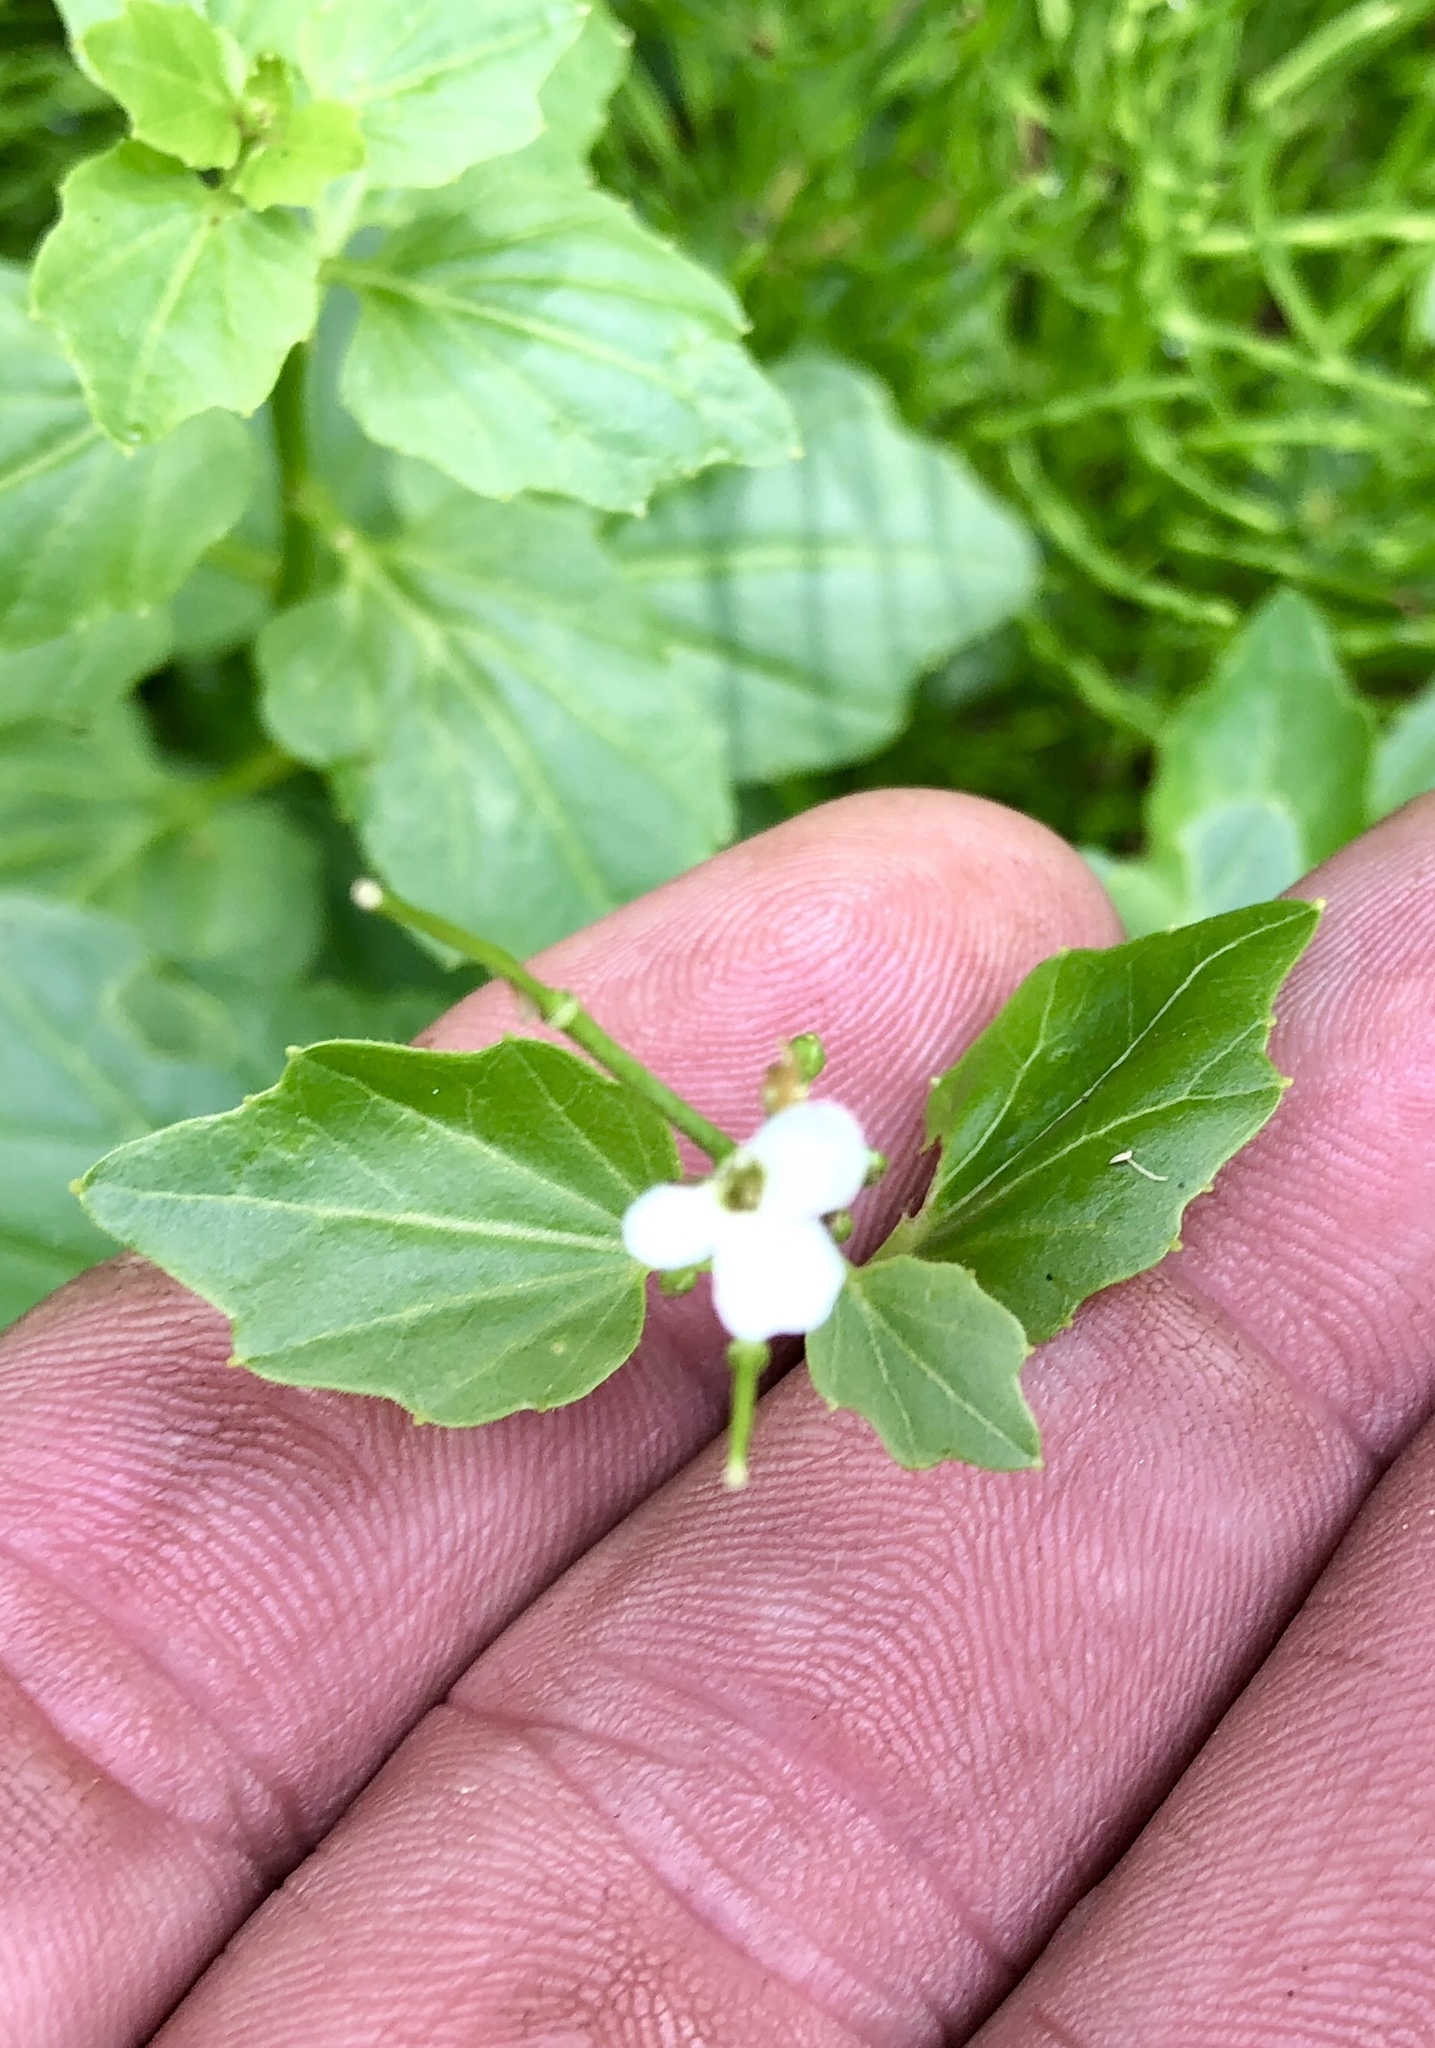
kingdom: Plantae
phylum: Tracheophyta
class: Magnoliopsida
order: Brassicales
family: Brassicaceae
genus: Cardamine
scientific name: Cardamine cordifolia
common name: Heart-leaf bittercress
